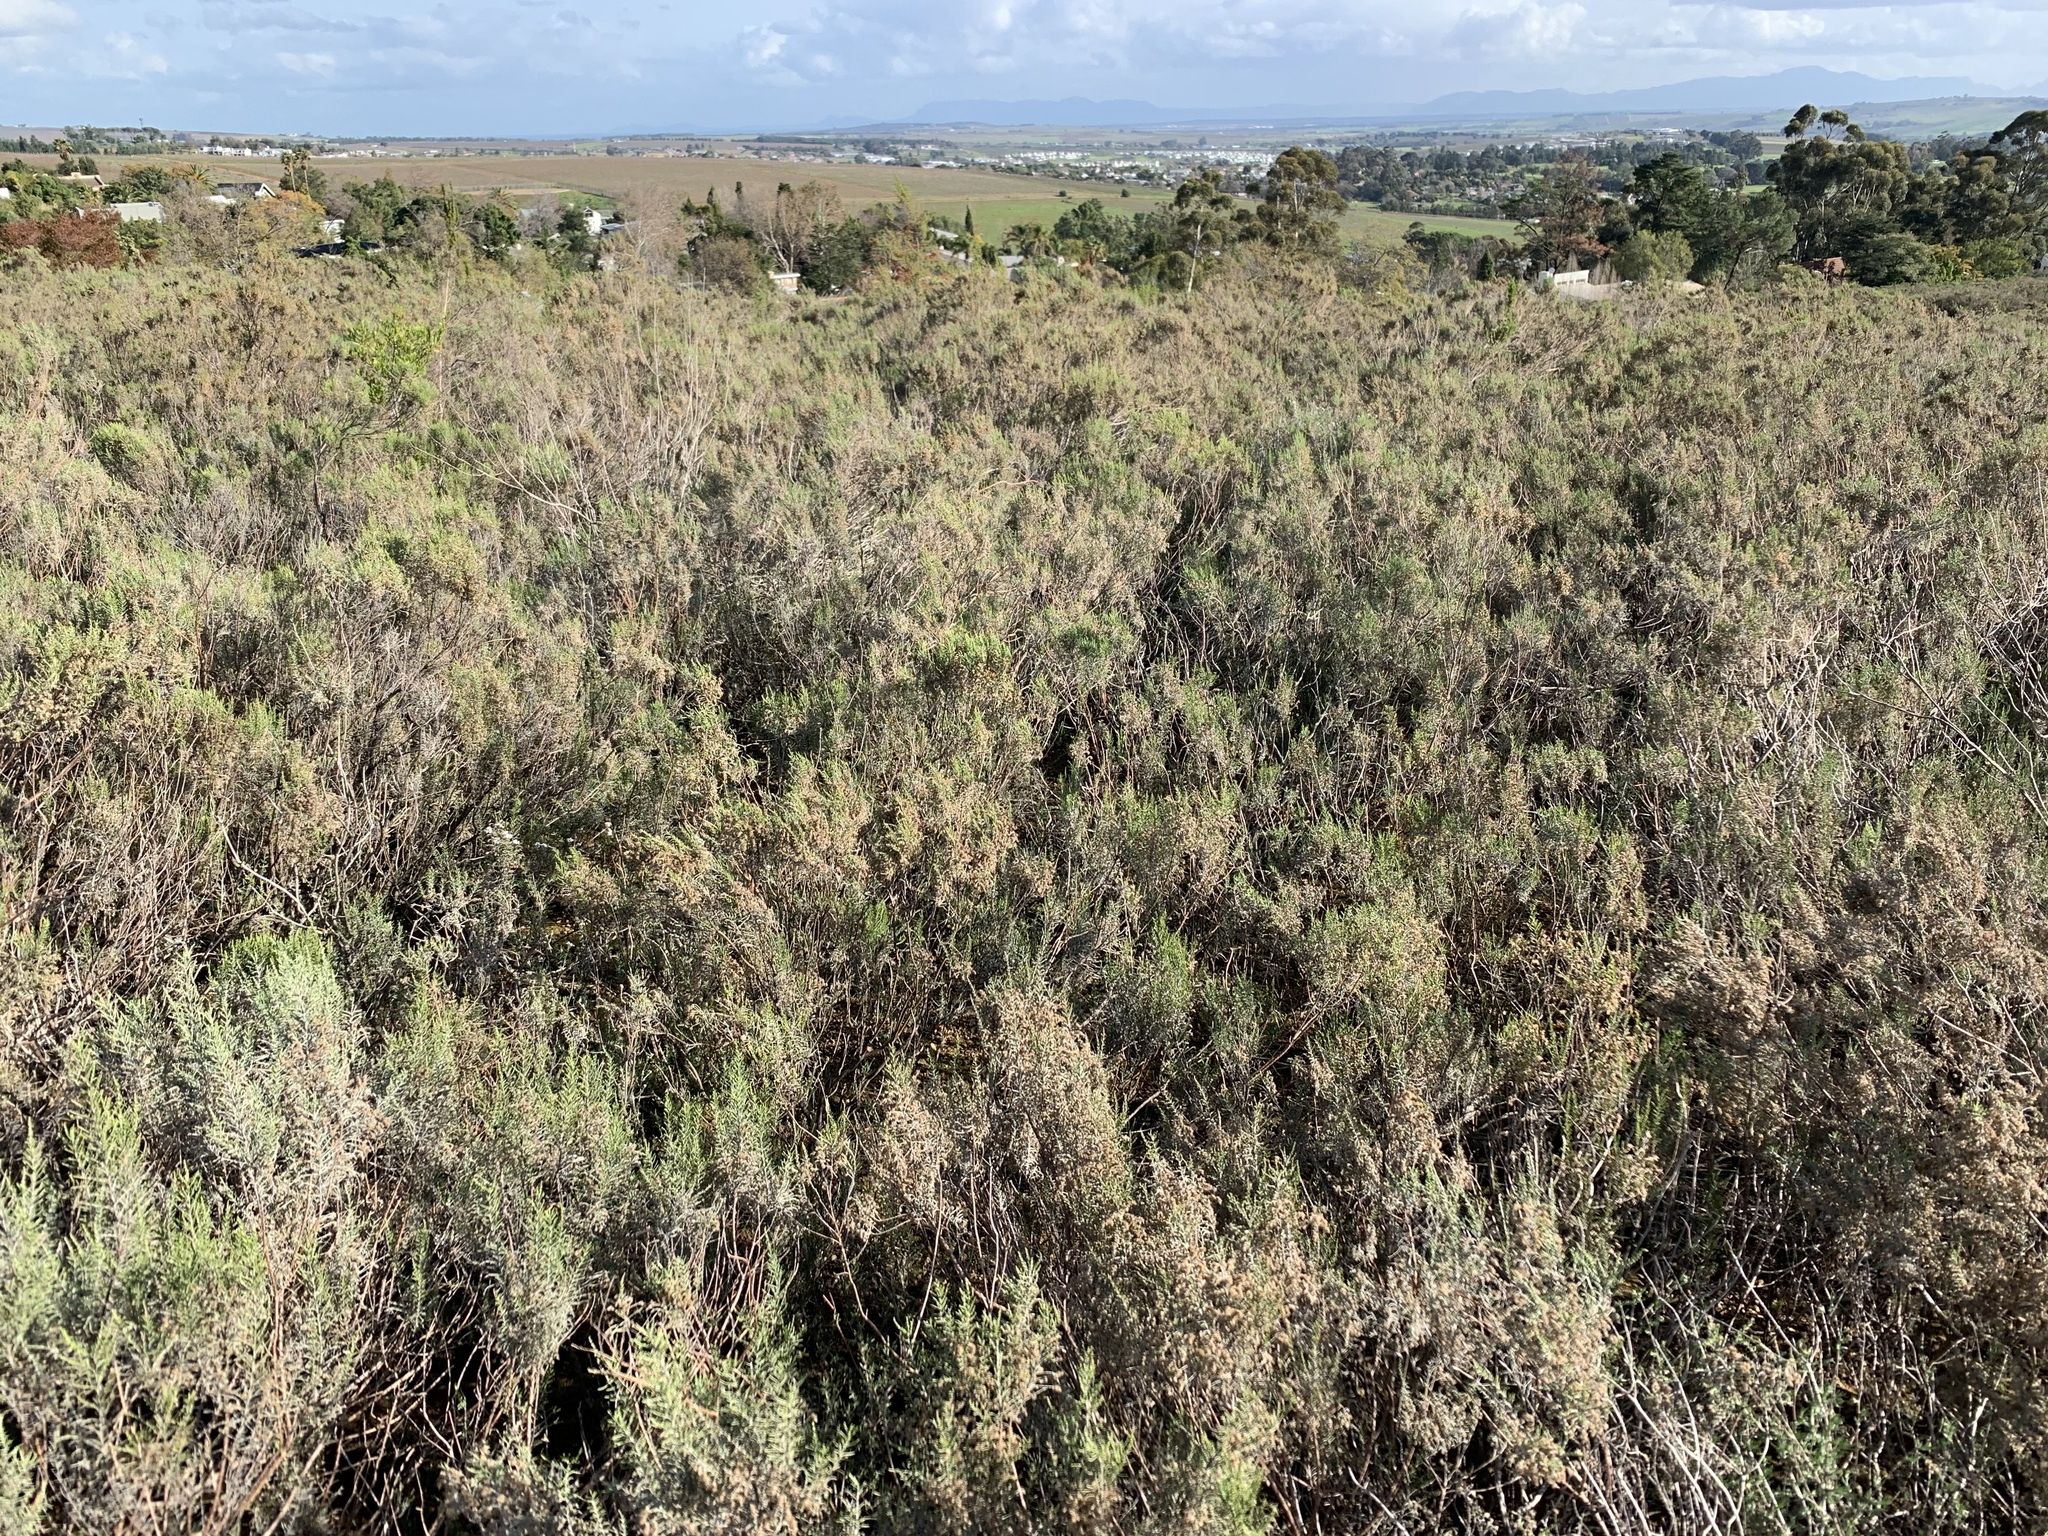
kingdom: Plantae
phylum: Tracheophyta
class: Magnoliopsida
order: Asterales
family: Asteraceae
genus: Dicerothamnus
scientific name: Dicerothamnus rhinocerotis
